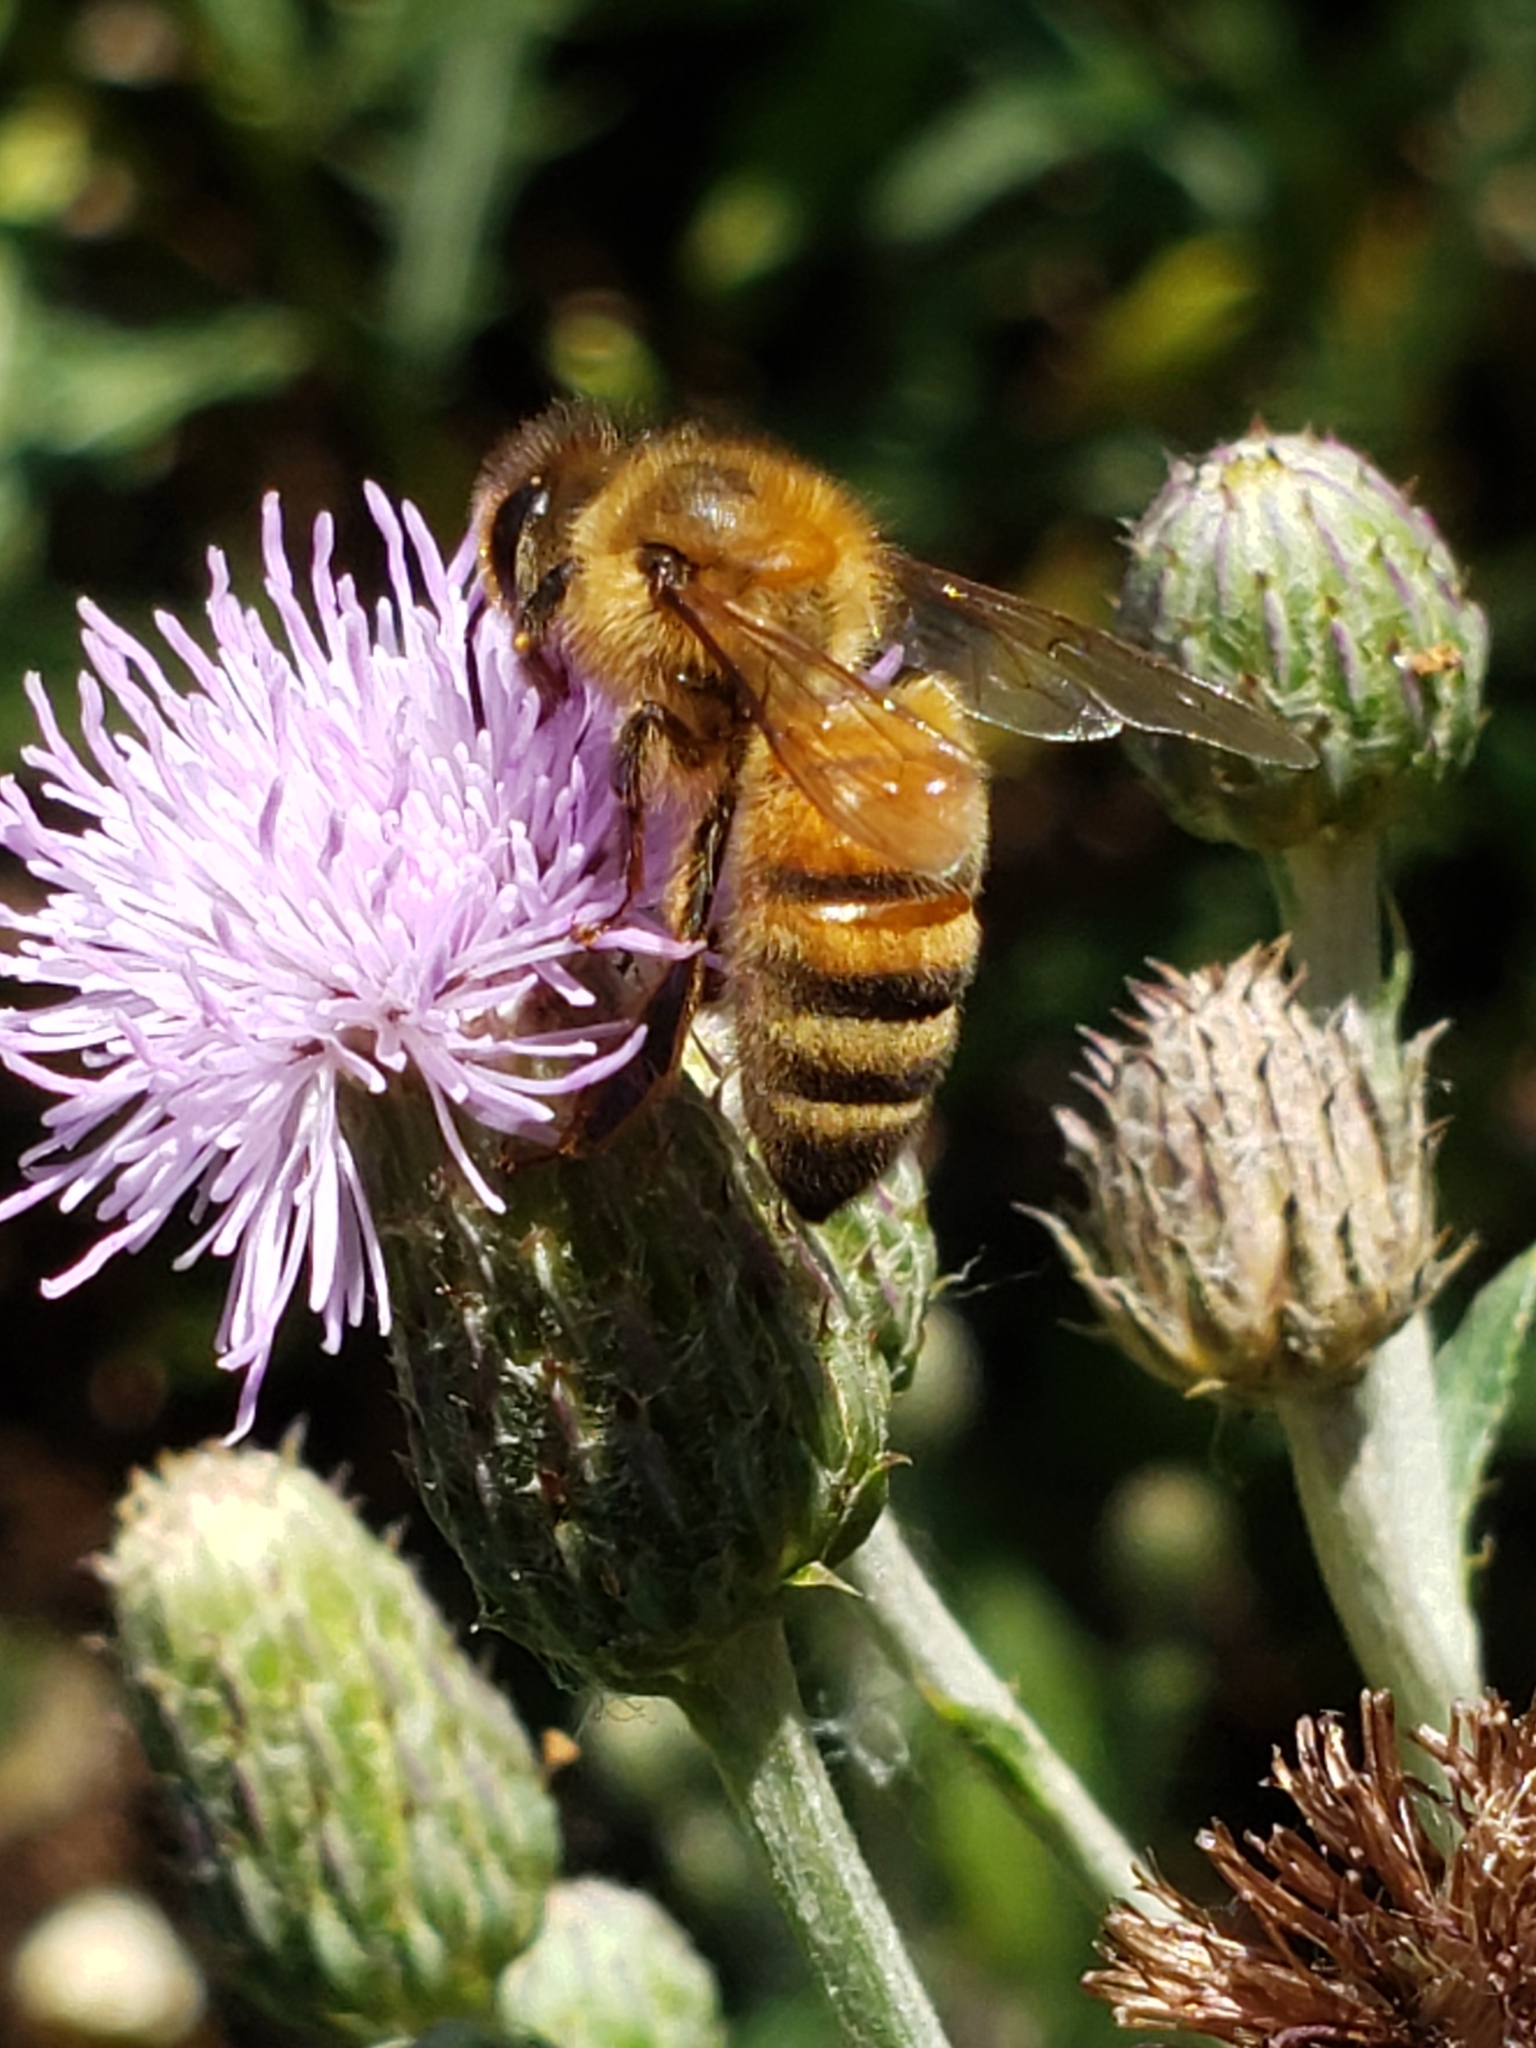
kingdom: Animalia
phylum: Arthropoda
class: Insecta
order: Hymenoptera
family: Apidae
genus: Apis
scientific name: Apis mellifera
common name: Honey bee
